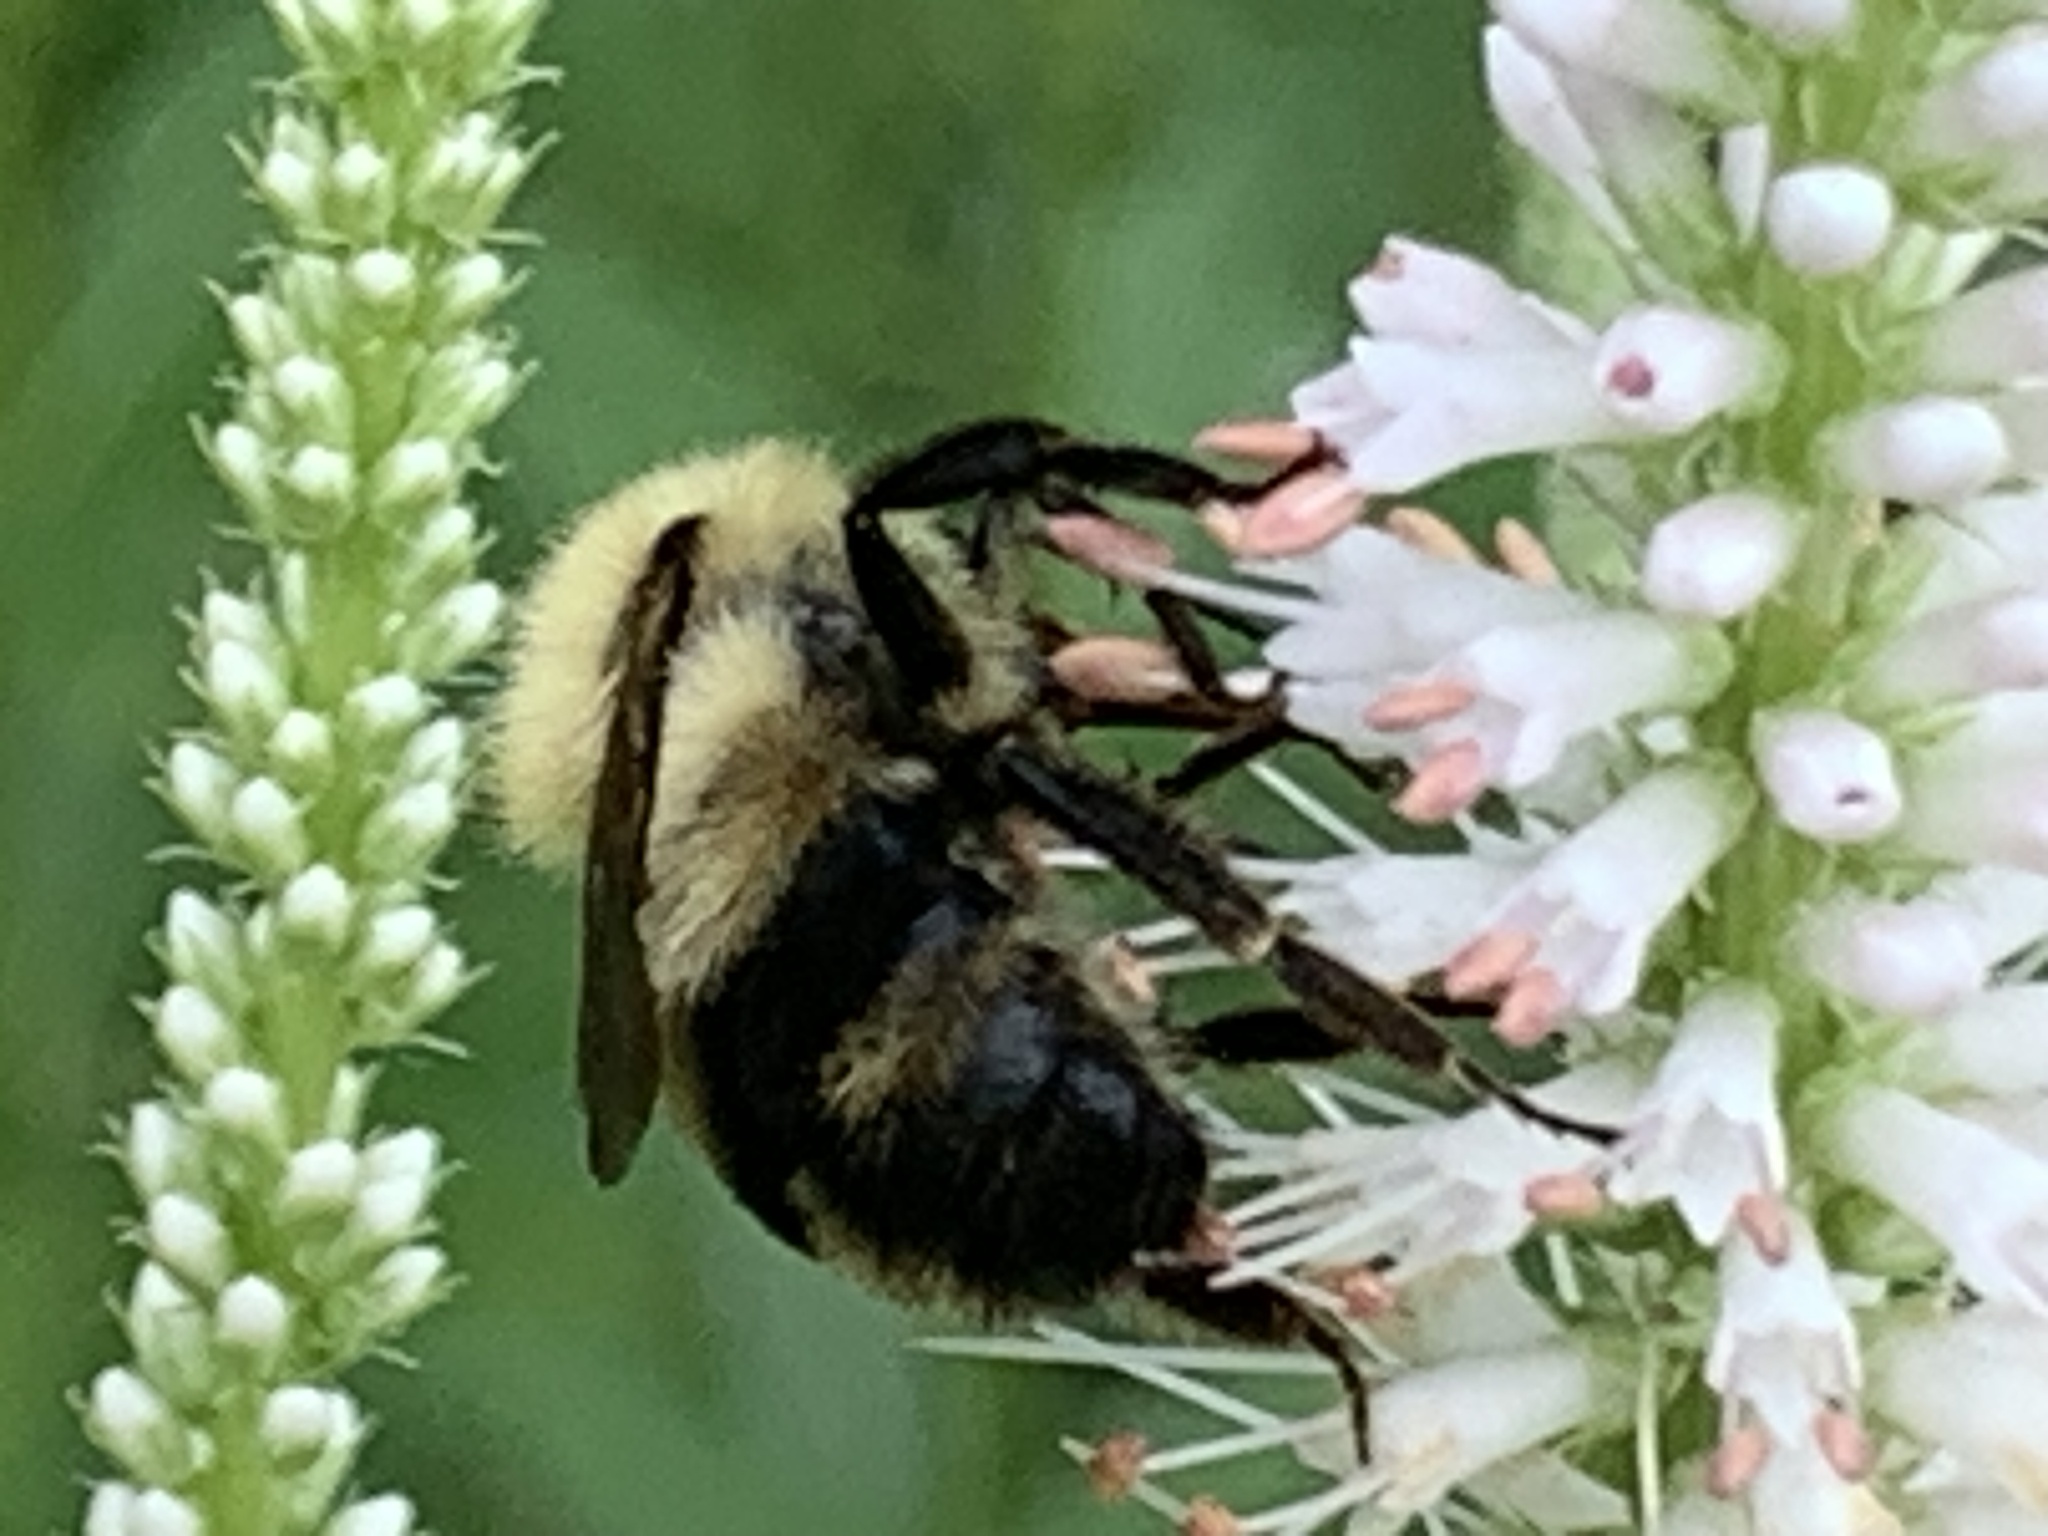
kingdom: Animalia
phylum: Arthropoda
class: Insecta
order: Hymenoptera
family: Apidae
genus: Bombus
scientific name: Bombus bimaculatus
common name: Two-spotted bumble bee
